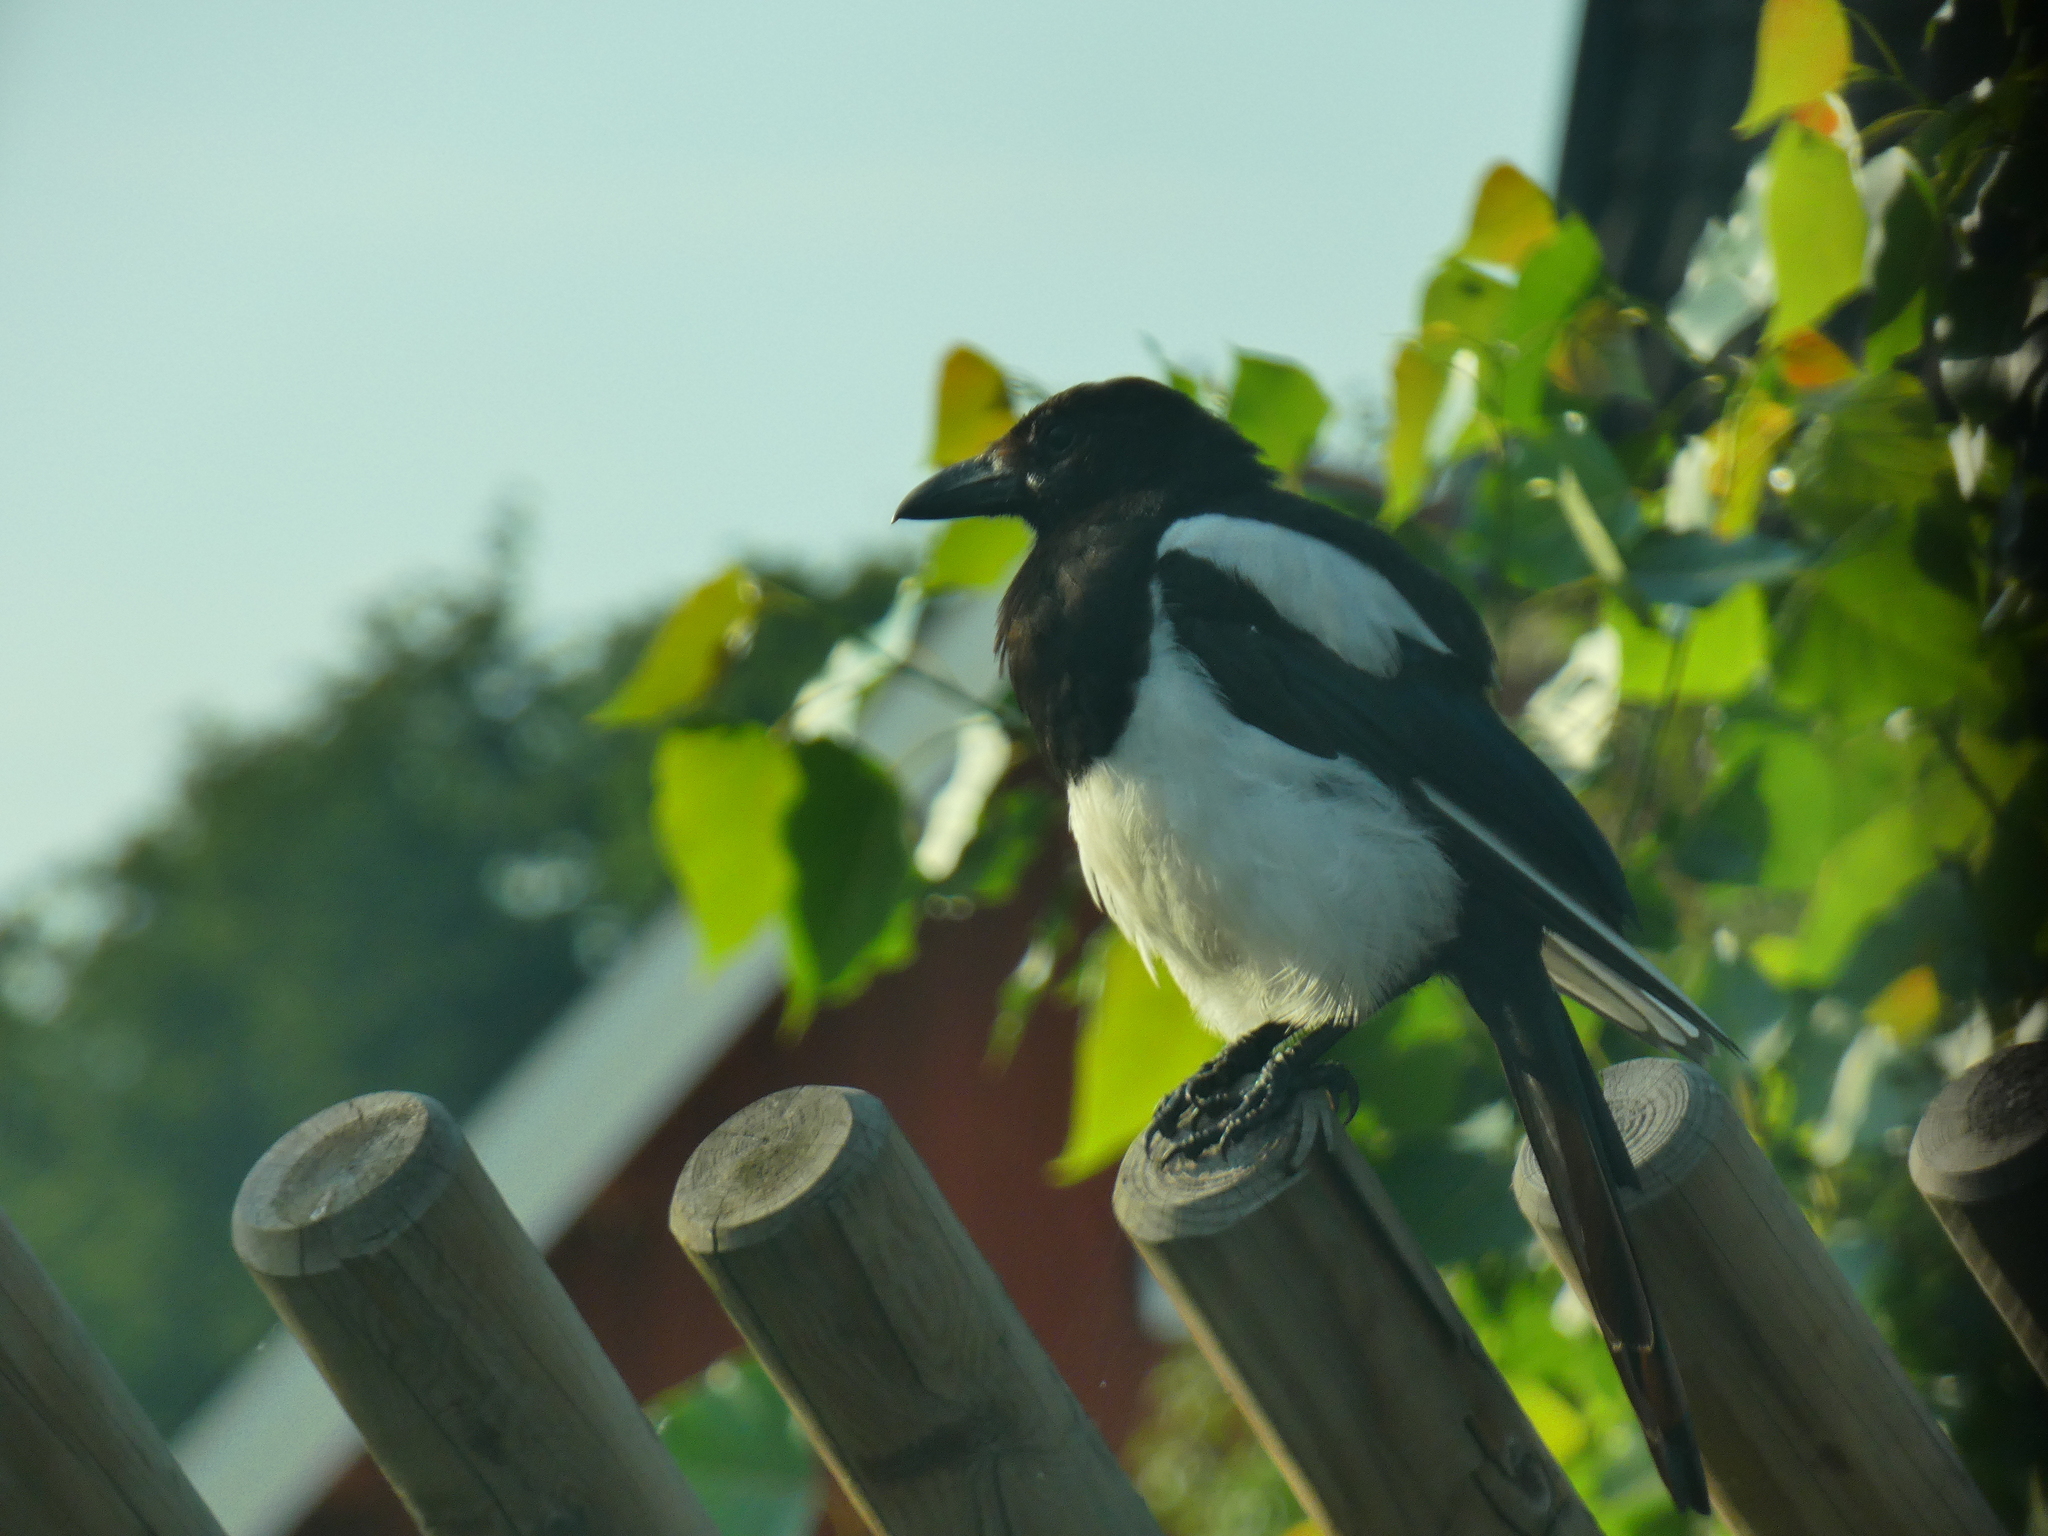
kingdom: Animalia
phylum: Chordata
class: Aves
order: Passeriformes
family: Corvidae
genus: Pica
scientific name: Pica pica
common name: Eurasian magpie
